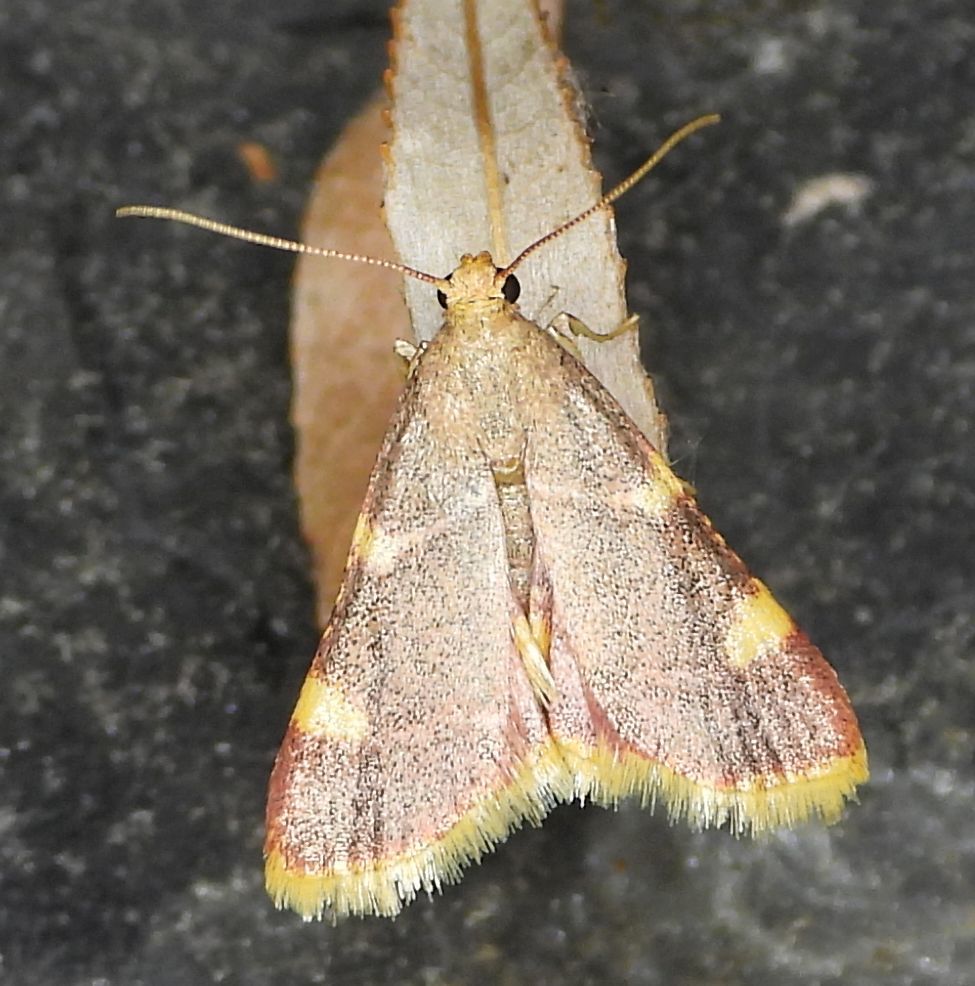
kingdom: Animalia
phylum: Arthropoda
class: Insecta
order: Lepidoptera
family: Pyralidae
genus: Hypsopygia
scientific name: Hypsopygia costalis
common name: Gold triangle
